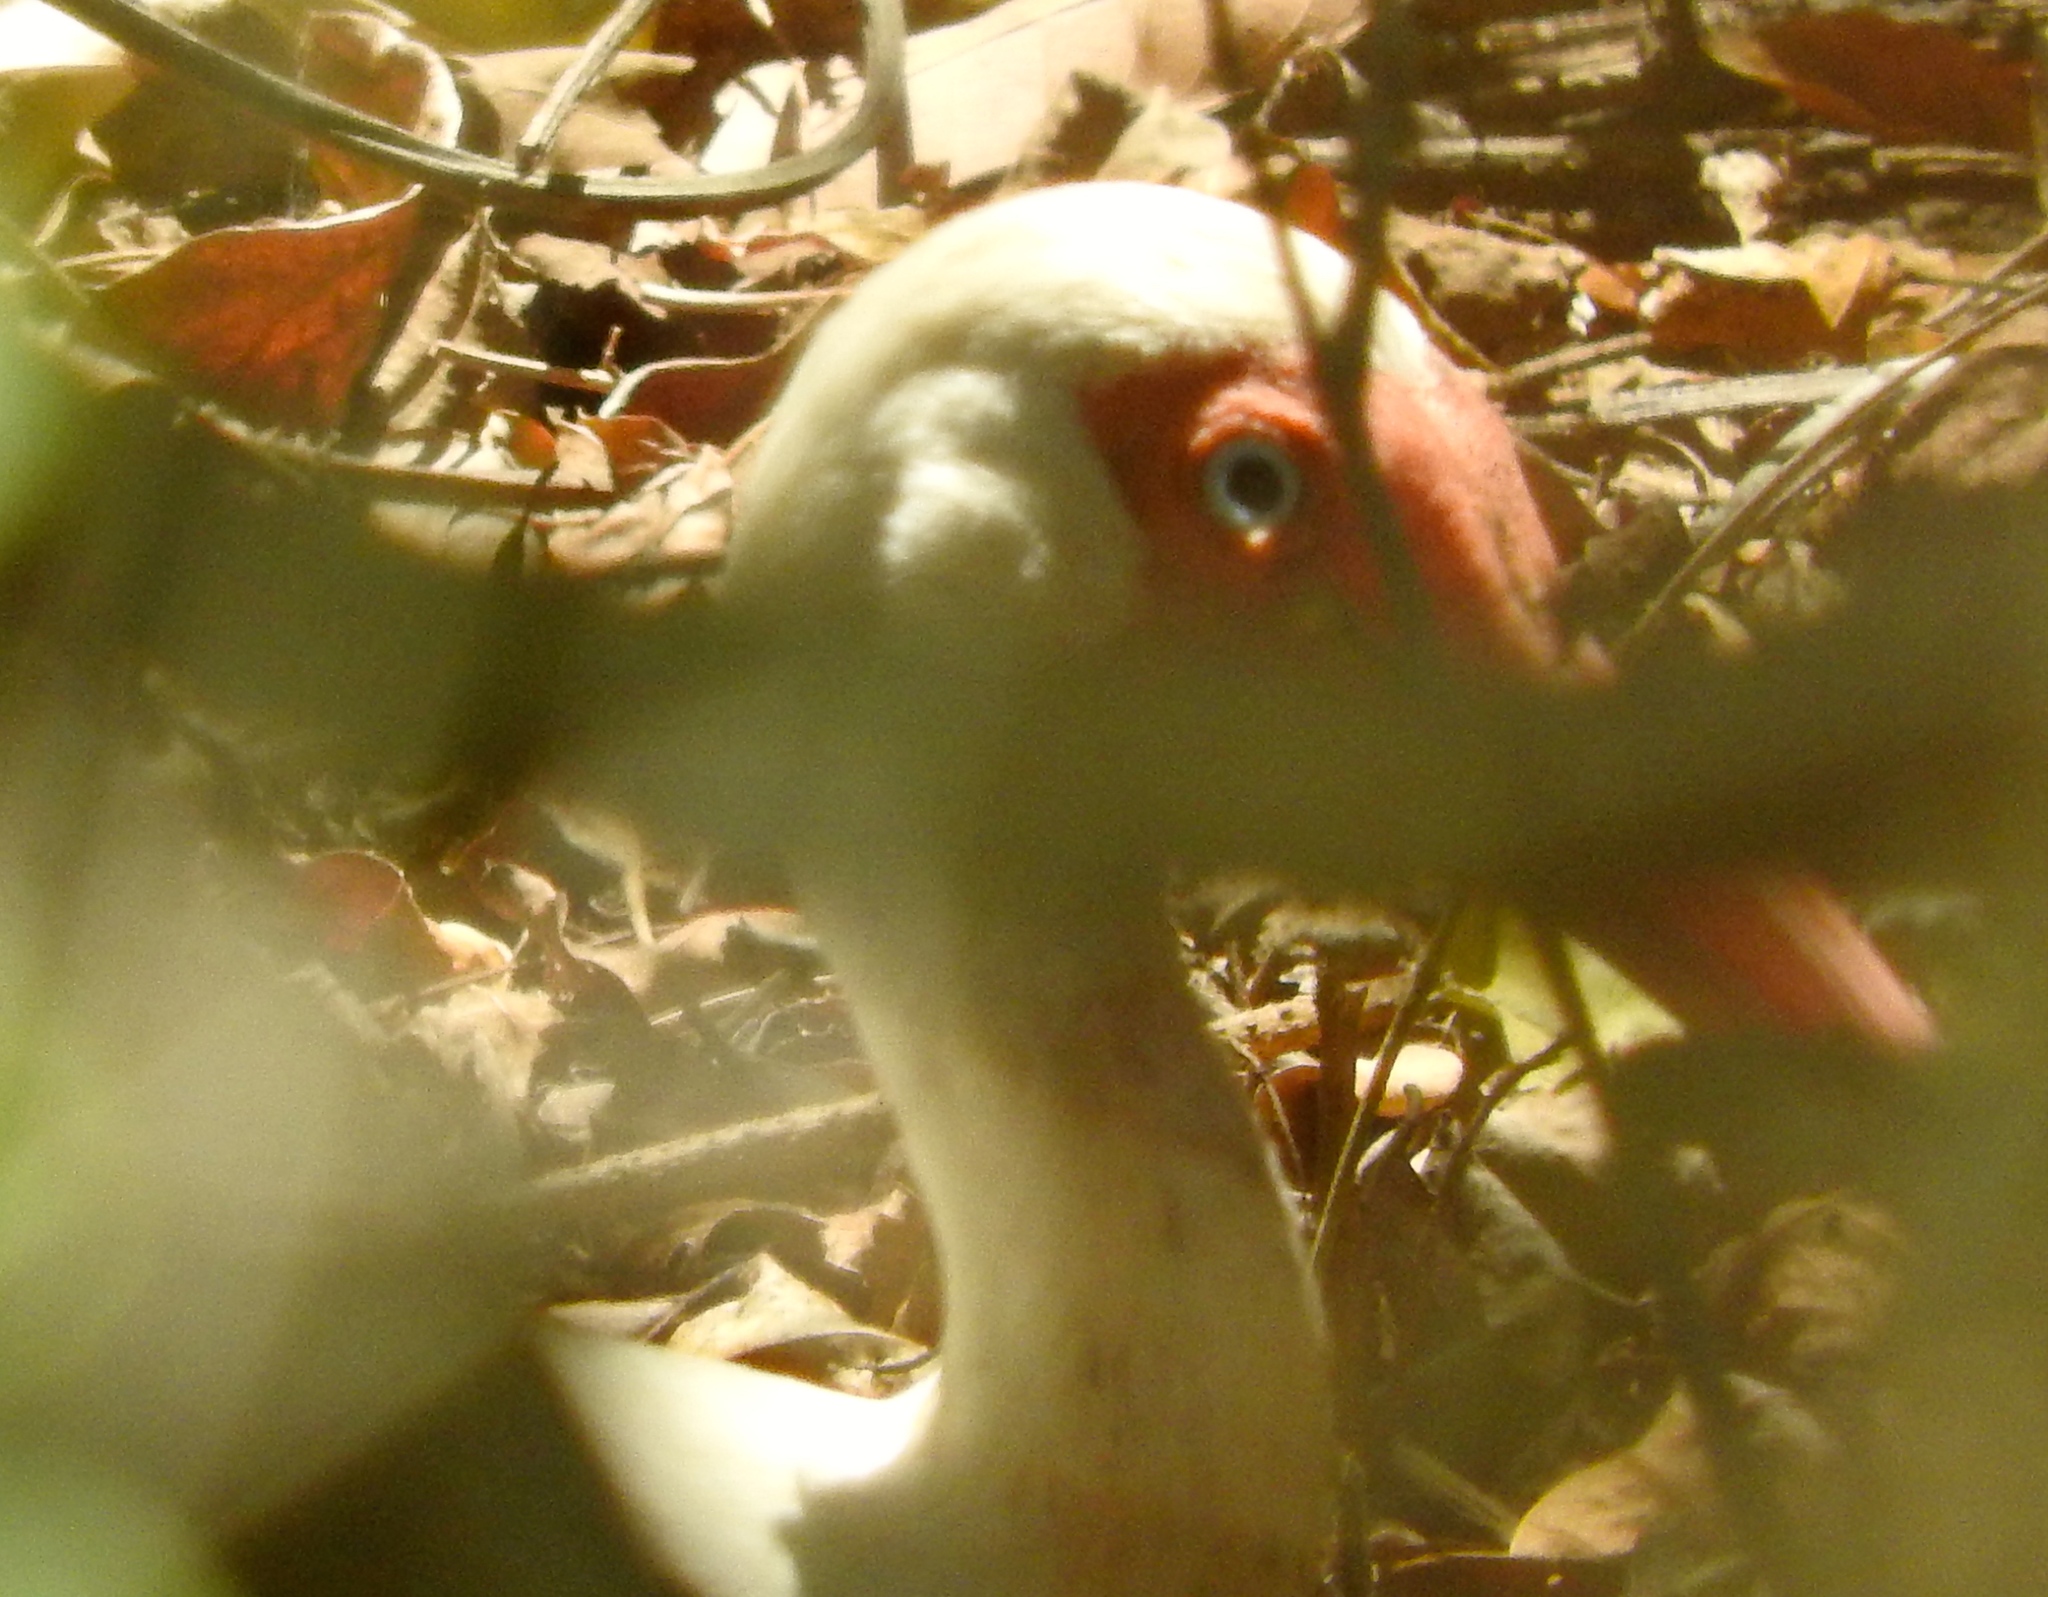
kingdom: Animalia
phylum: Chordata
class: Aves
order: Pelecaniformes
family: Threskiornithidae
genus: Eudocimus
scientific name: Eudocimus albus
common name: White ibis
